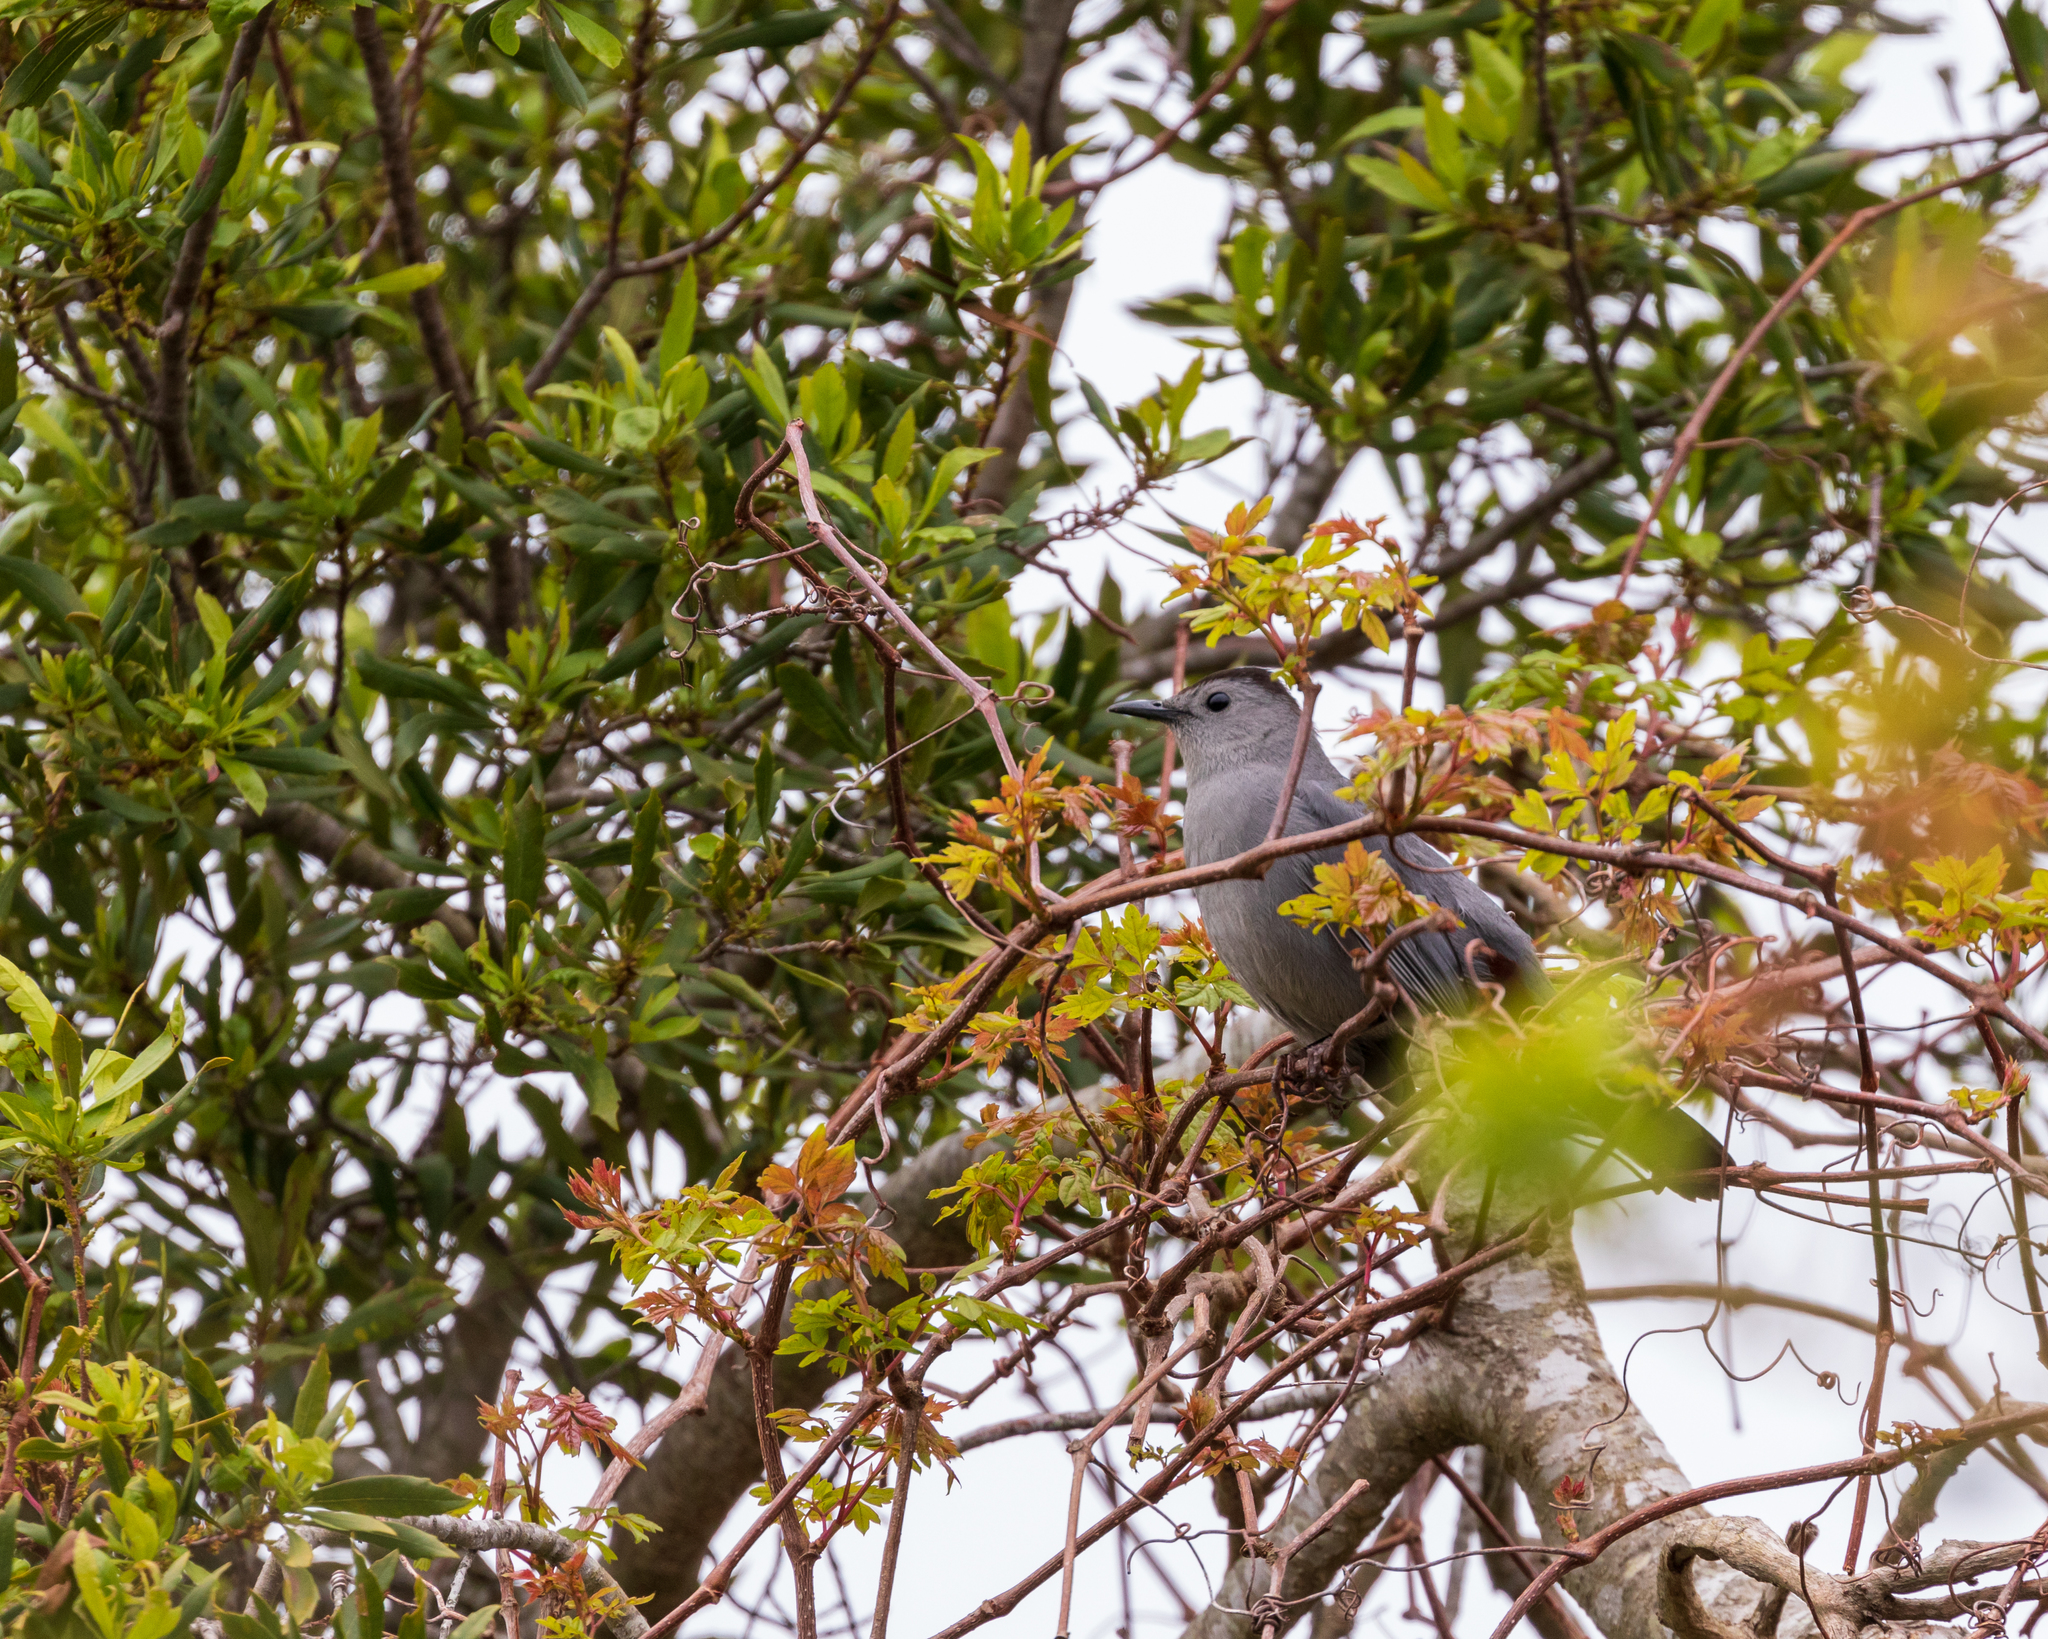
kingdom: Animalia
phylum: Chordata
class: Aves
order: Passeriformes
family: Mimidae
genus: Dumetella
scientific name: Dumetella carolinensis
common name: Gray catbird
